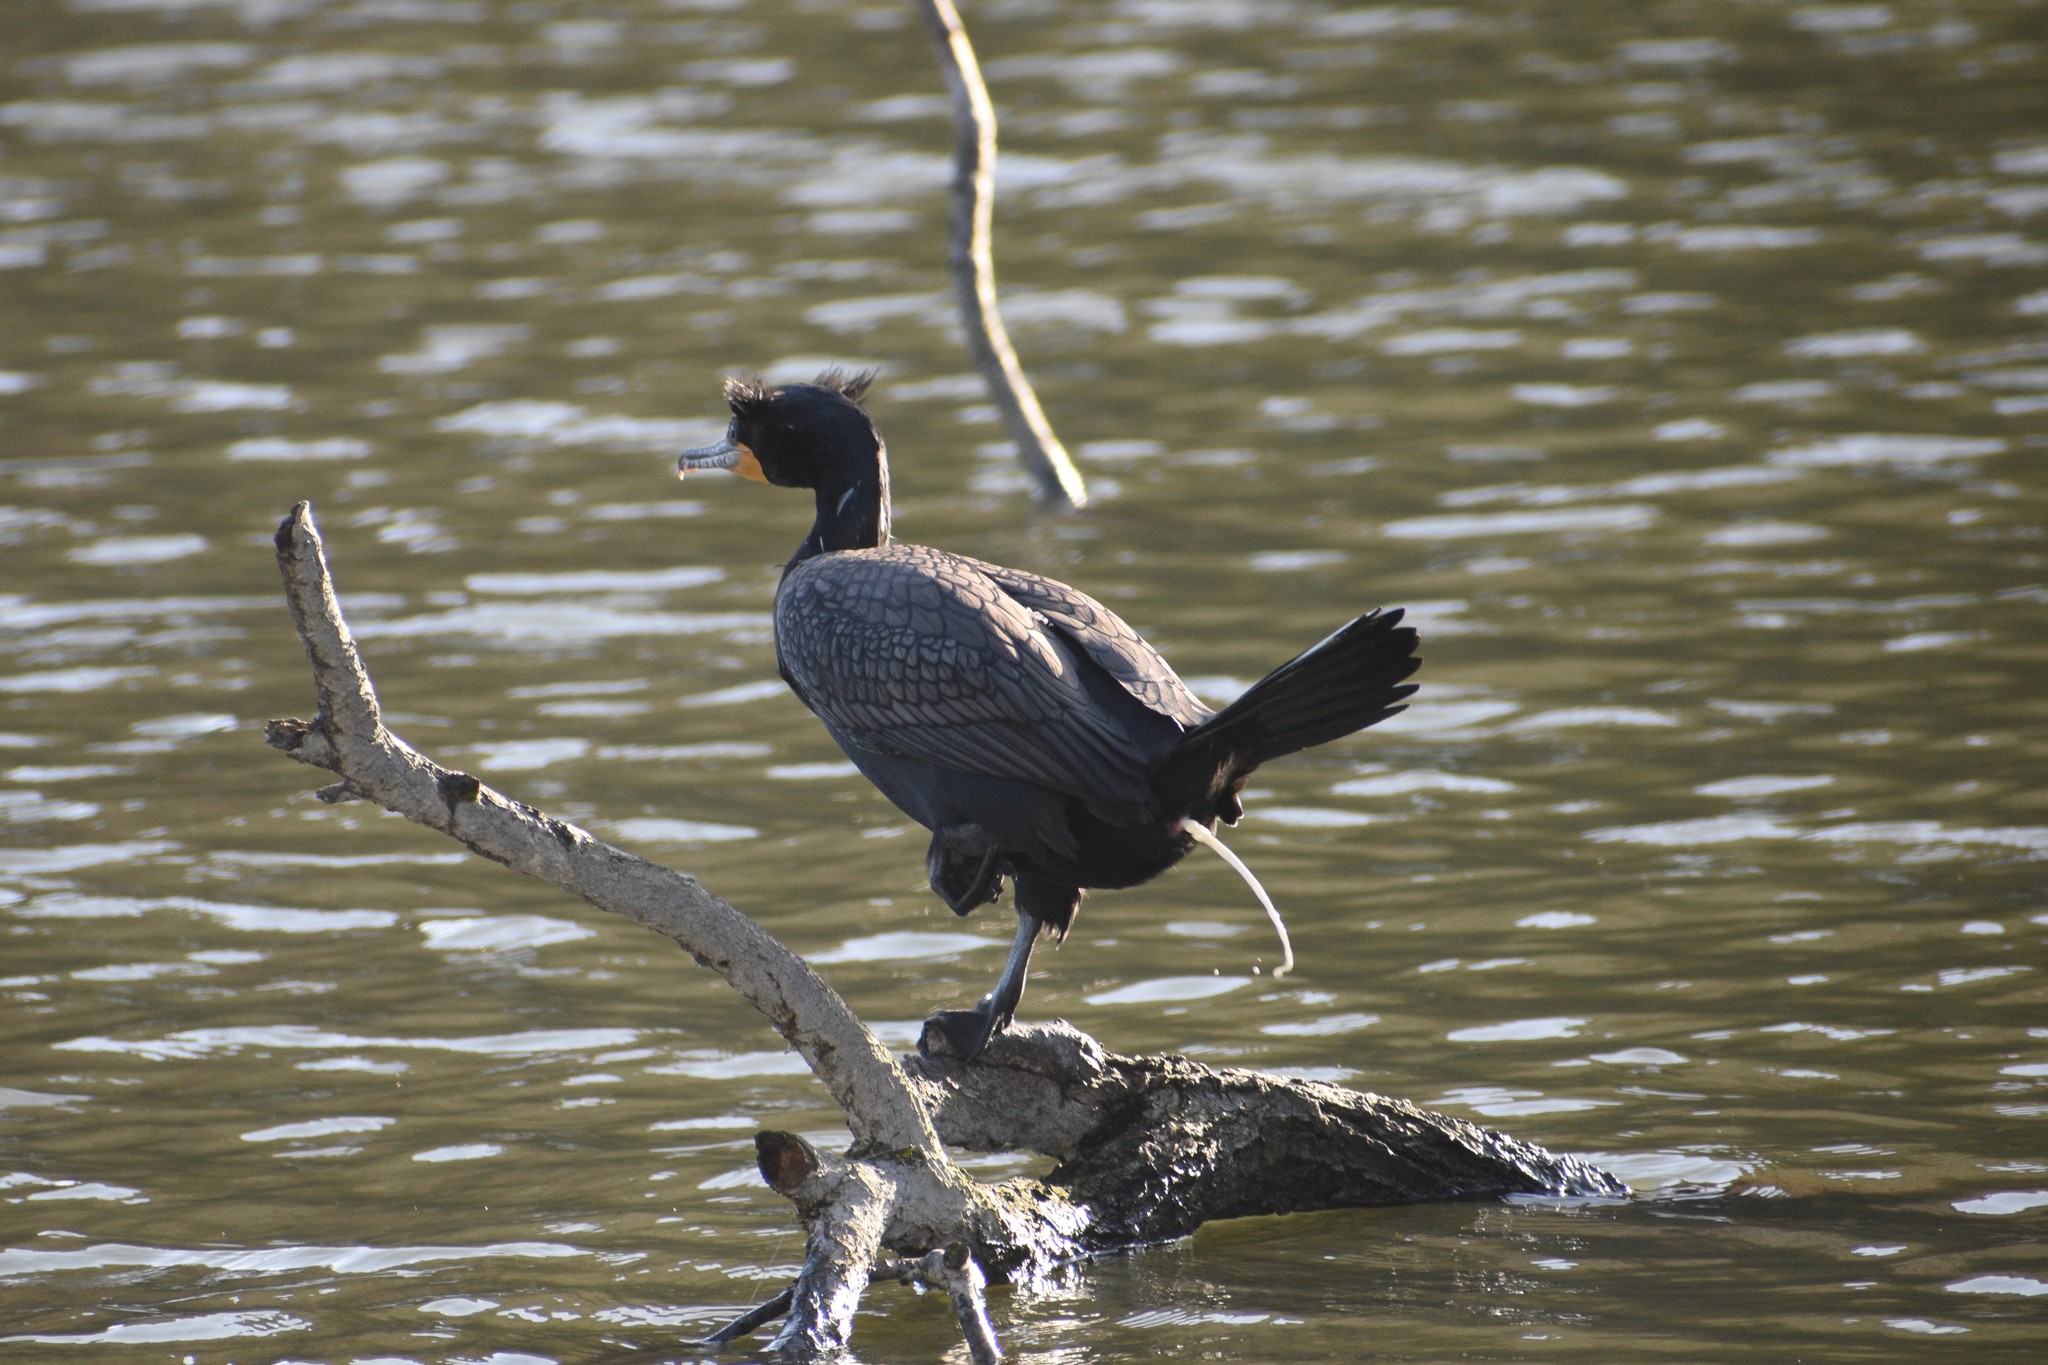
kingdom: Animalia
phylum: Chordata
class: Aves
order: Suliformes
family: Phalacrocoracidae
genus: Phalacrocorax
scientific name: Phalacrocorax auritus
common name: Double-crested cormorant
